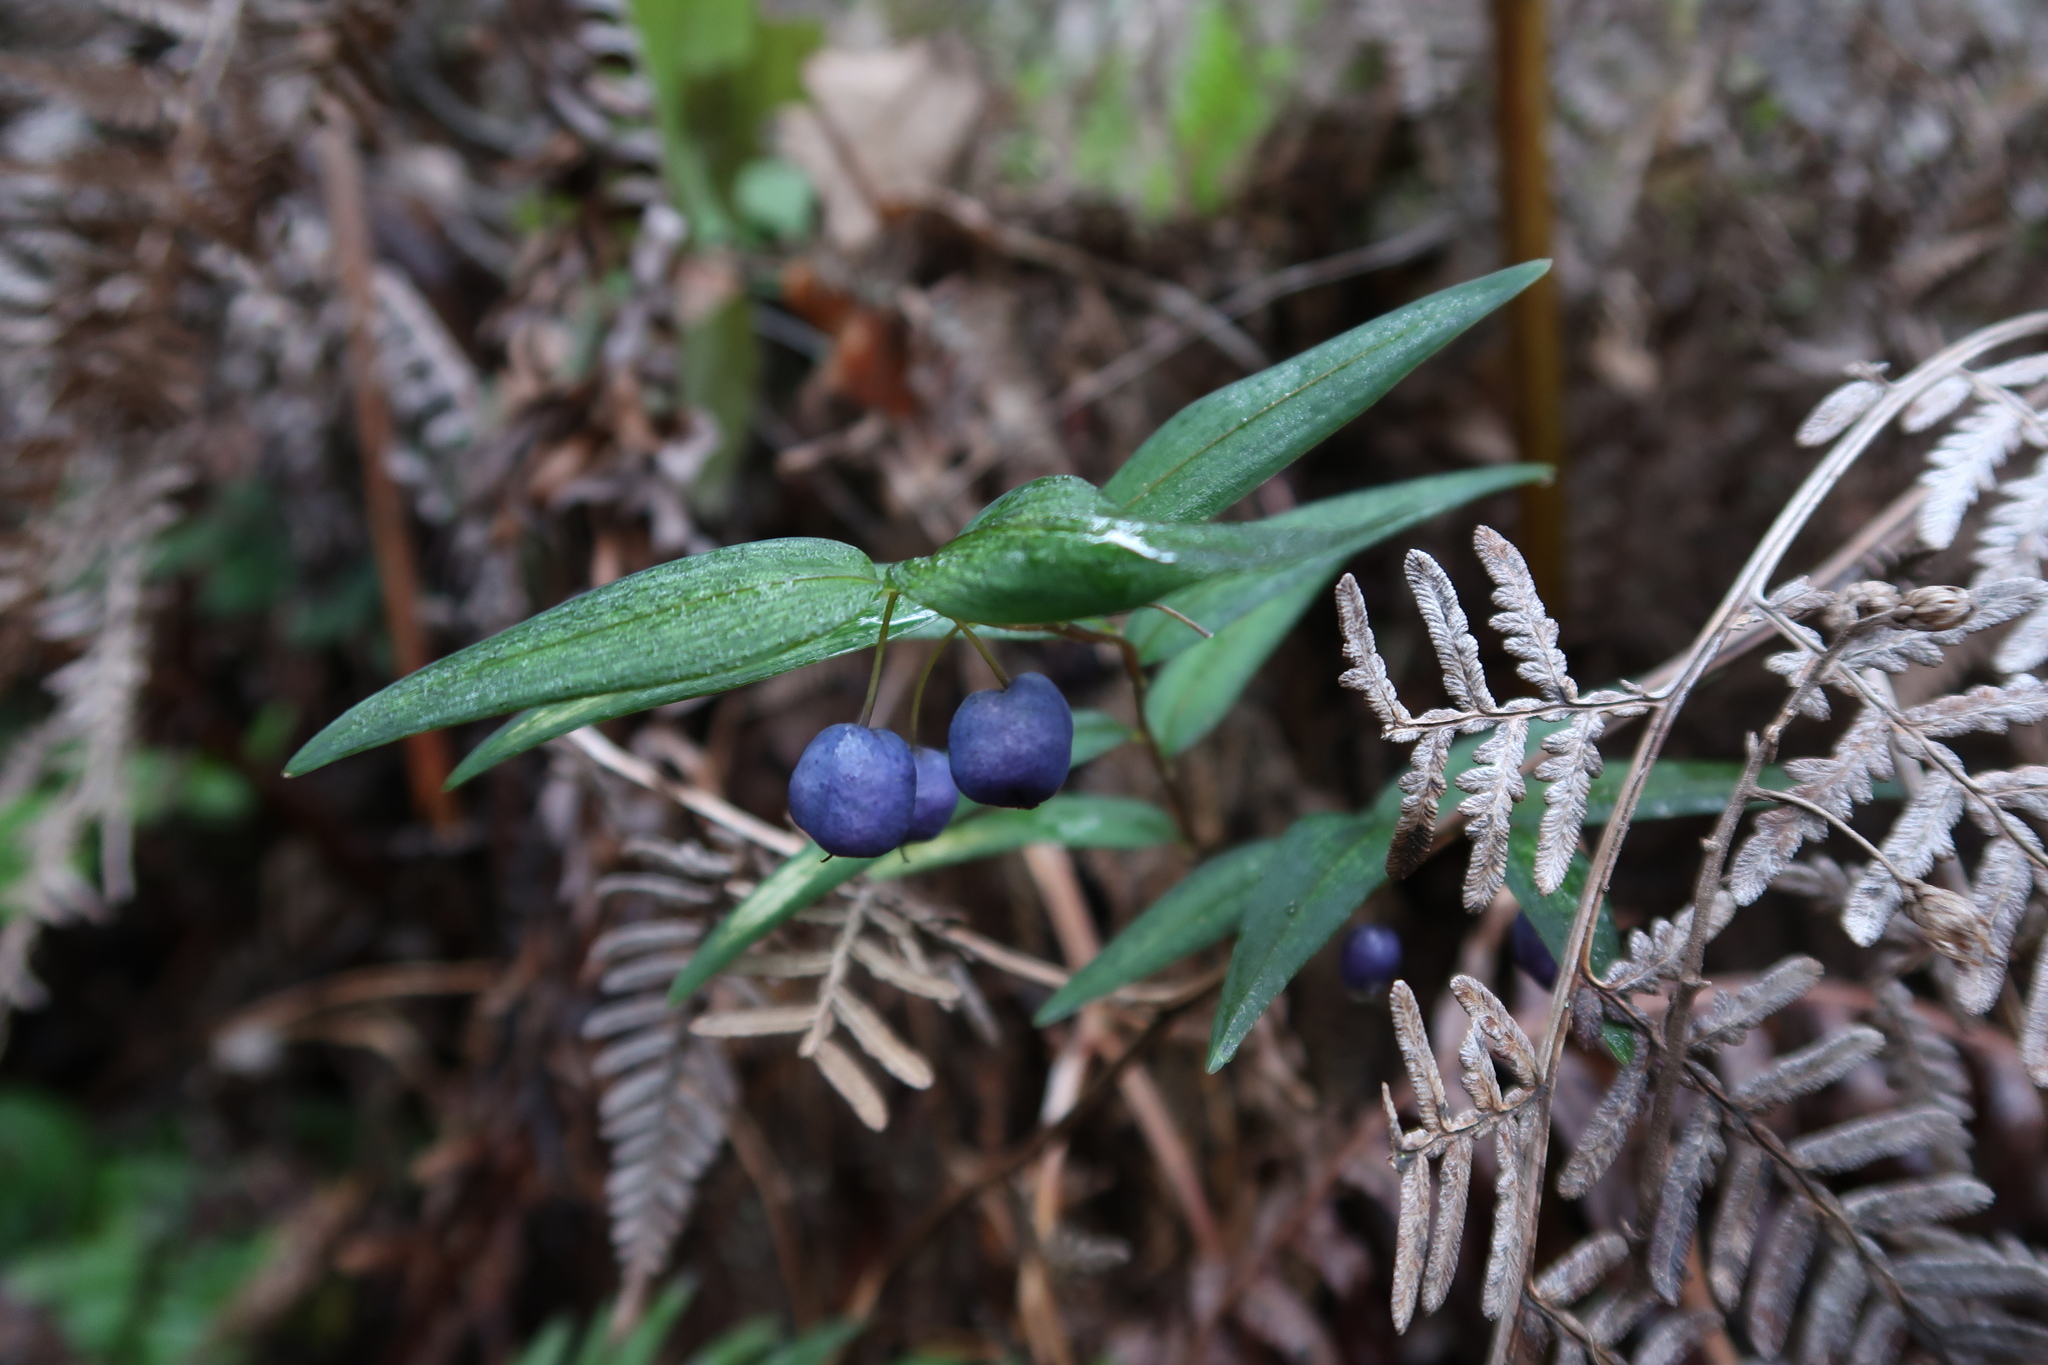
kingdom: Plantae
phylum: Tracheophyta
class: Liliopsida
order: Liliales
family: Alstroemeriaceae
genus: Drymophila
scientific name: Drymophila cyanocarpa
